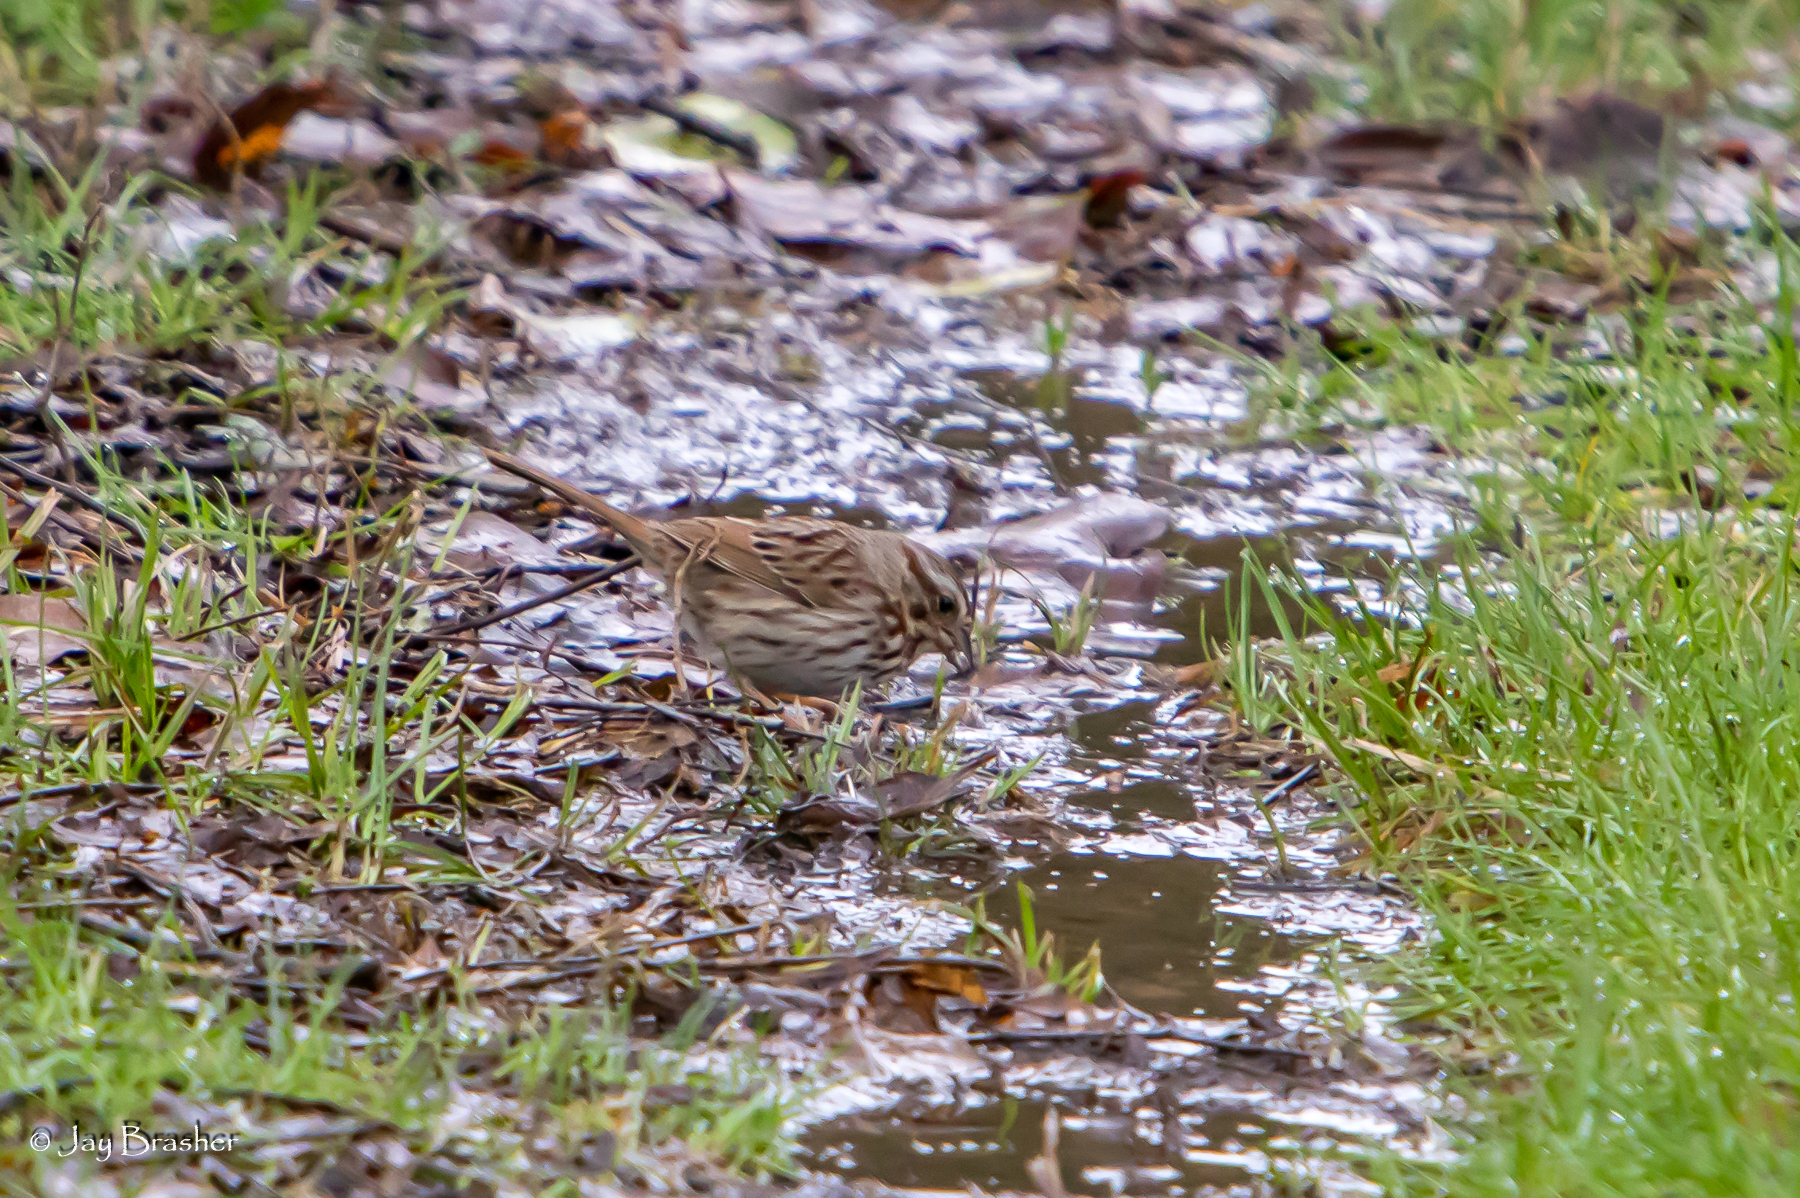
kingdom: Animalia
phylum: Chordata
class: Aves
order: Passeriformes
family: Passerellidae
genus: Melospiza
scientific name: Melospiza melodia
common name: Song sparrow
